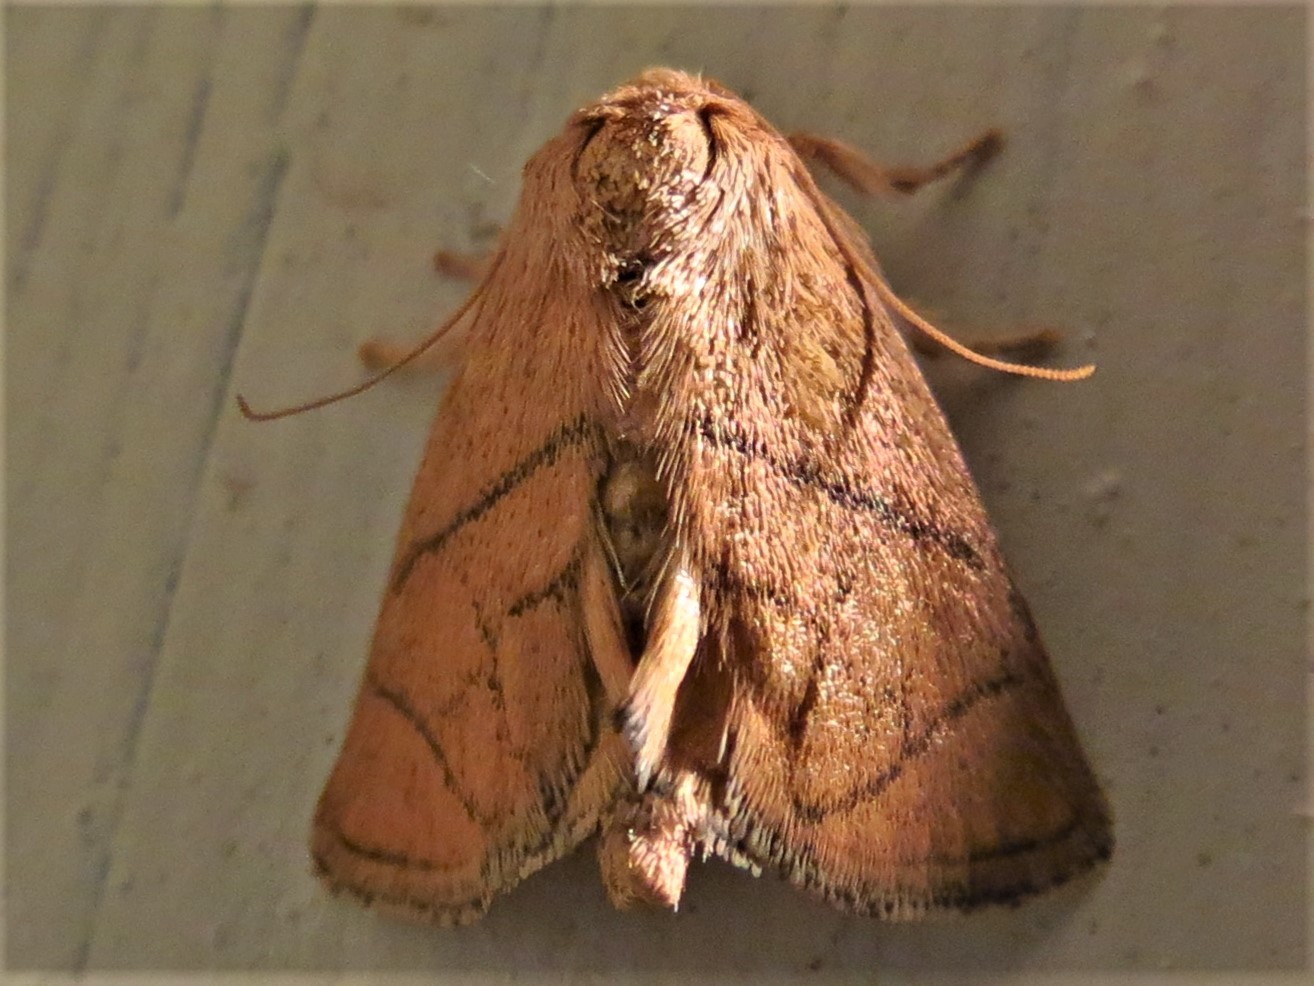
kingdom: Animalia
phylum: Arthropoda
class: Insecta
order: Lepidoptera
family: Limacodidae
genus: Apoda
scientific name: Apoda y-inversa
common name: Yellow-collared slug moth
